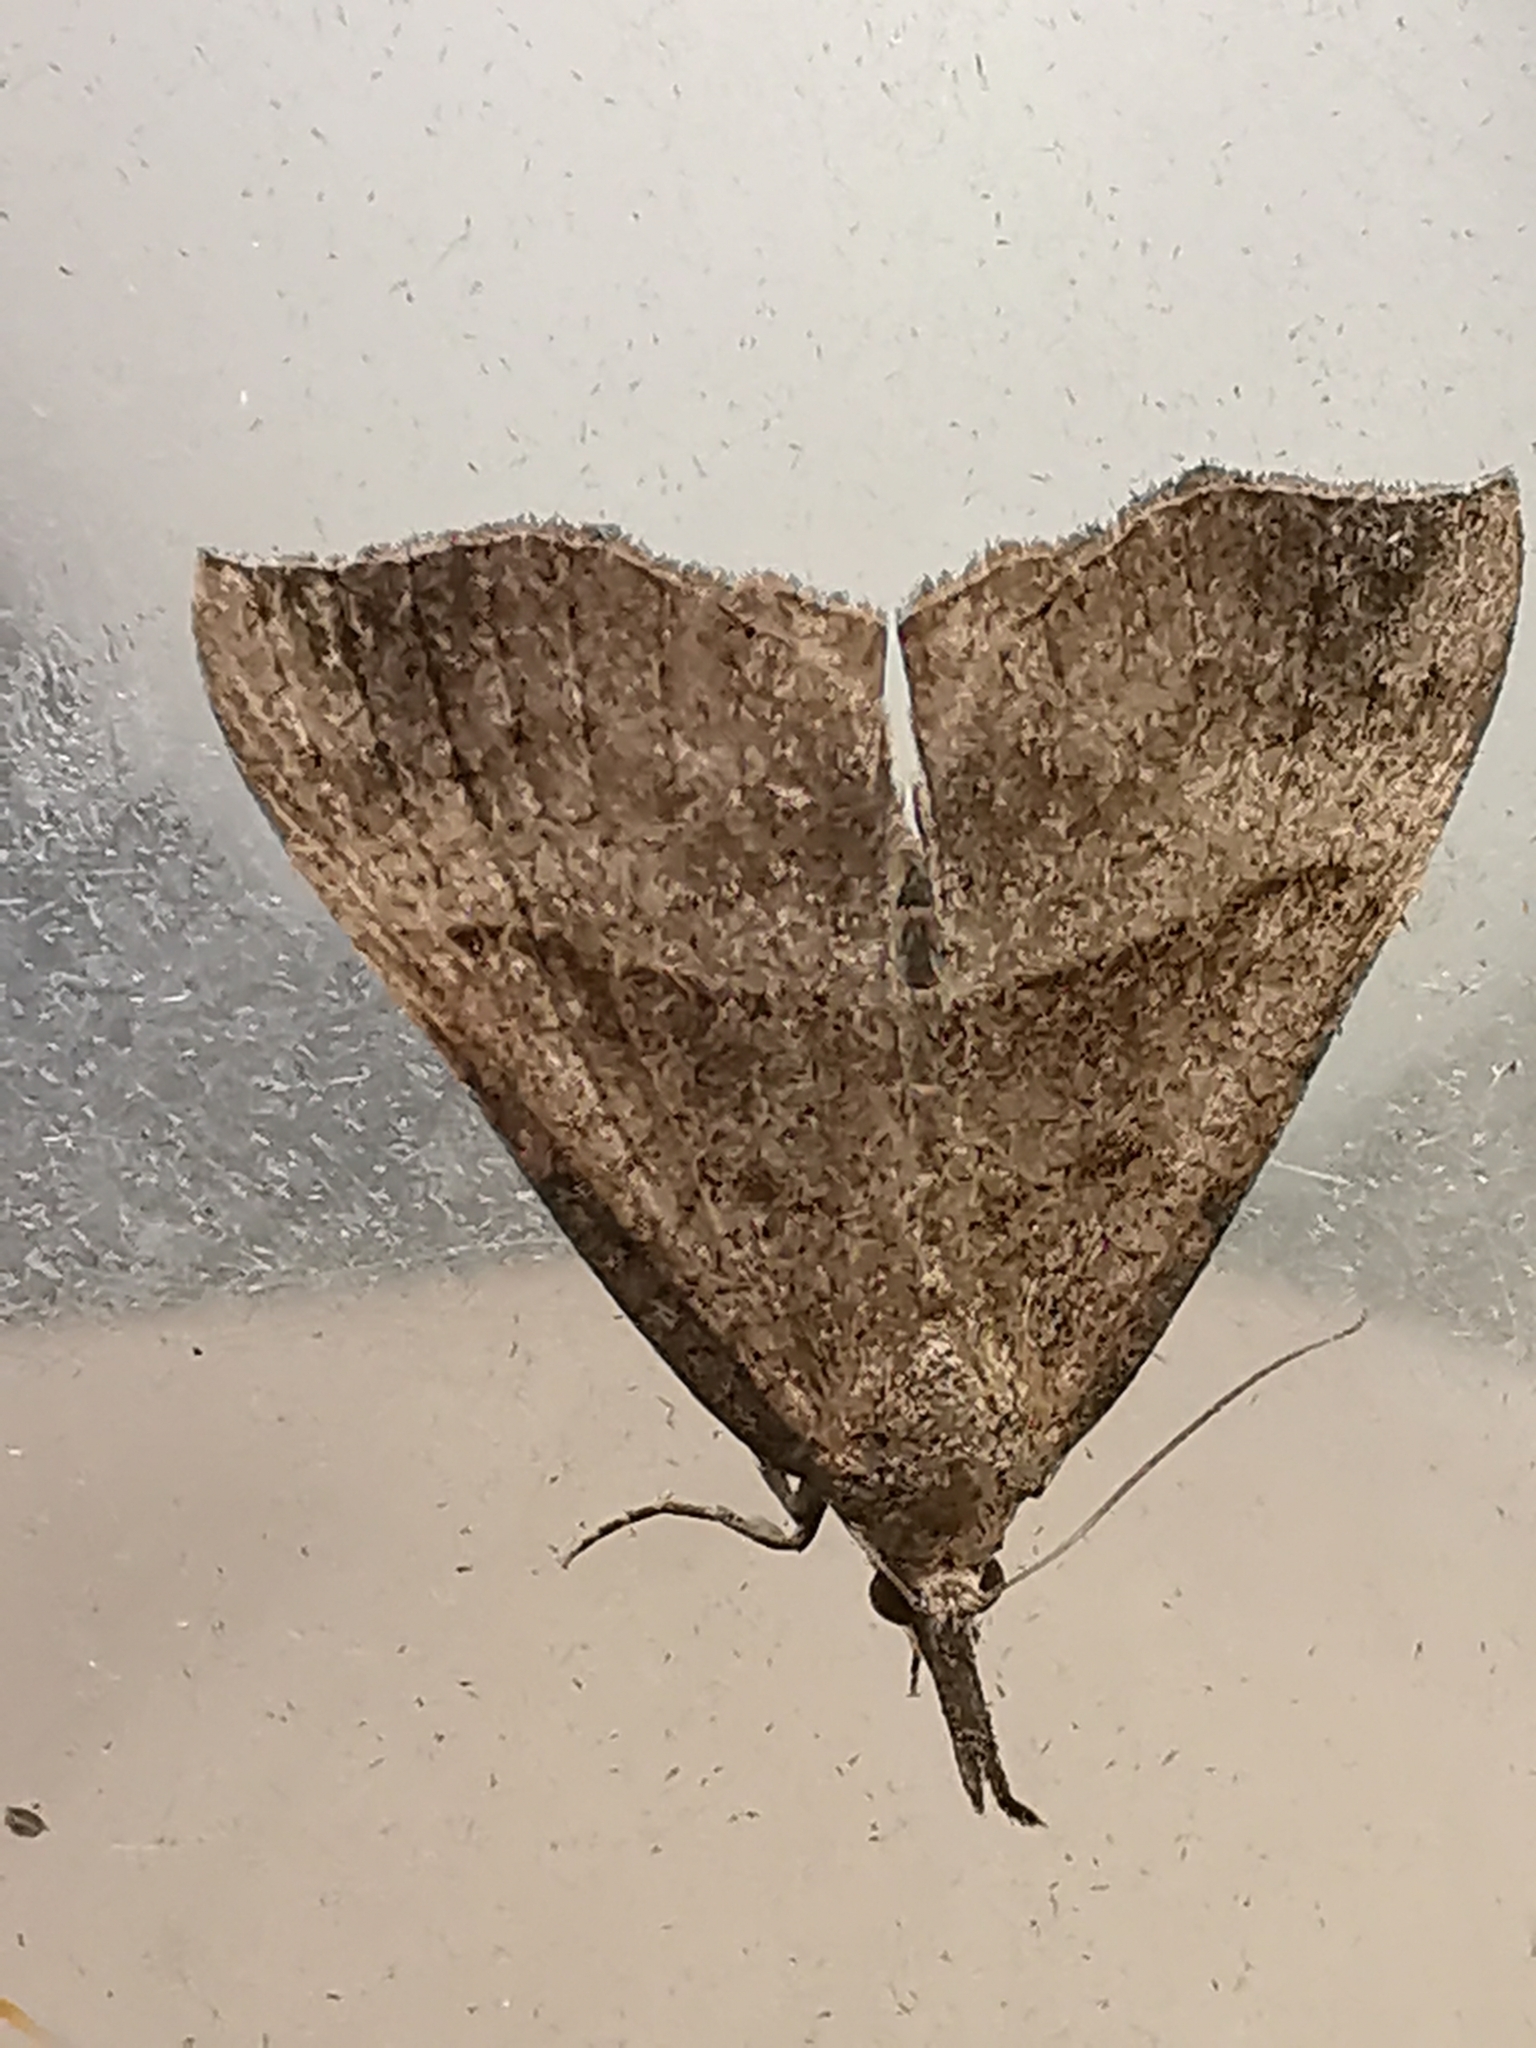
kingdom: Animalia
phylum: Arthropoda
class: Insecta
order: Lepidoptera
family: Erebidae
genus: Hypena
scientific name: Hypena proboscidalis
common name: Snout
